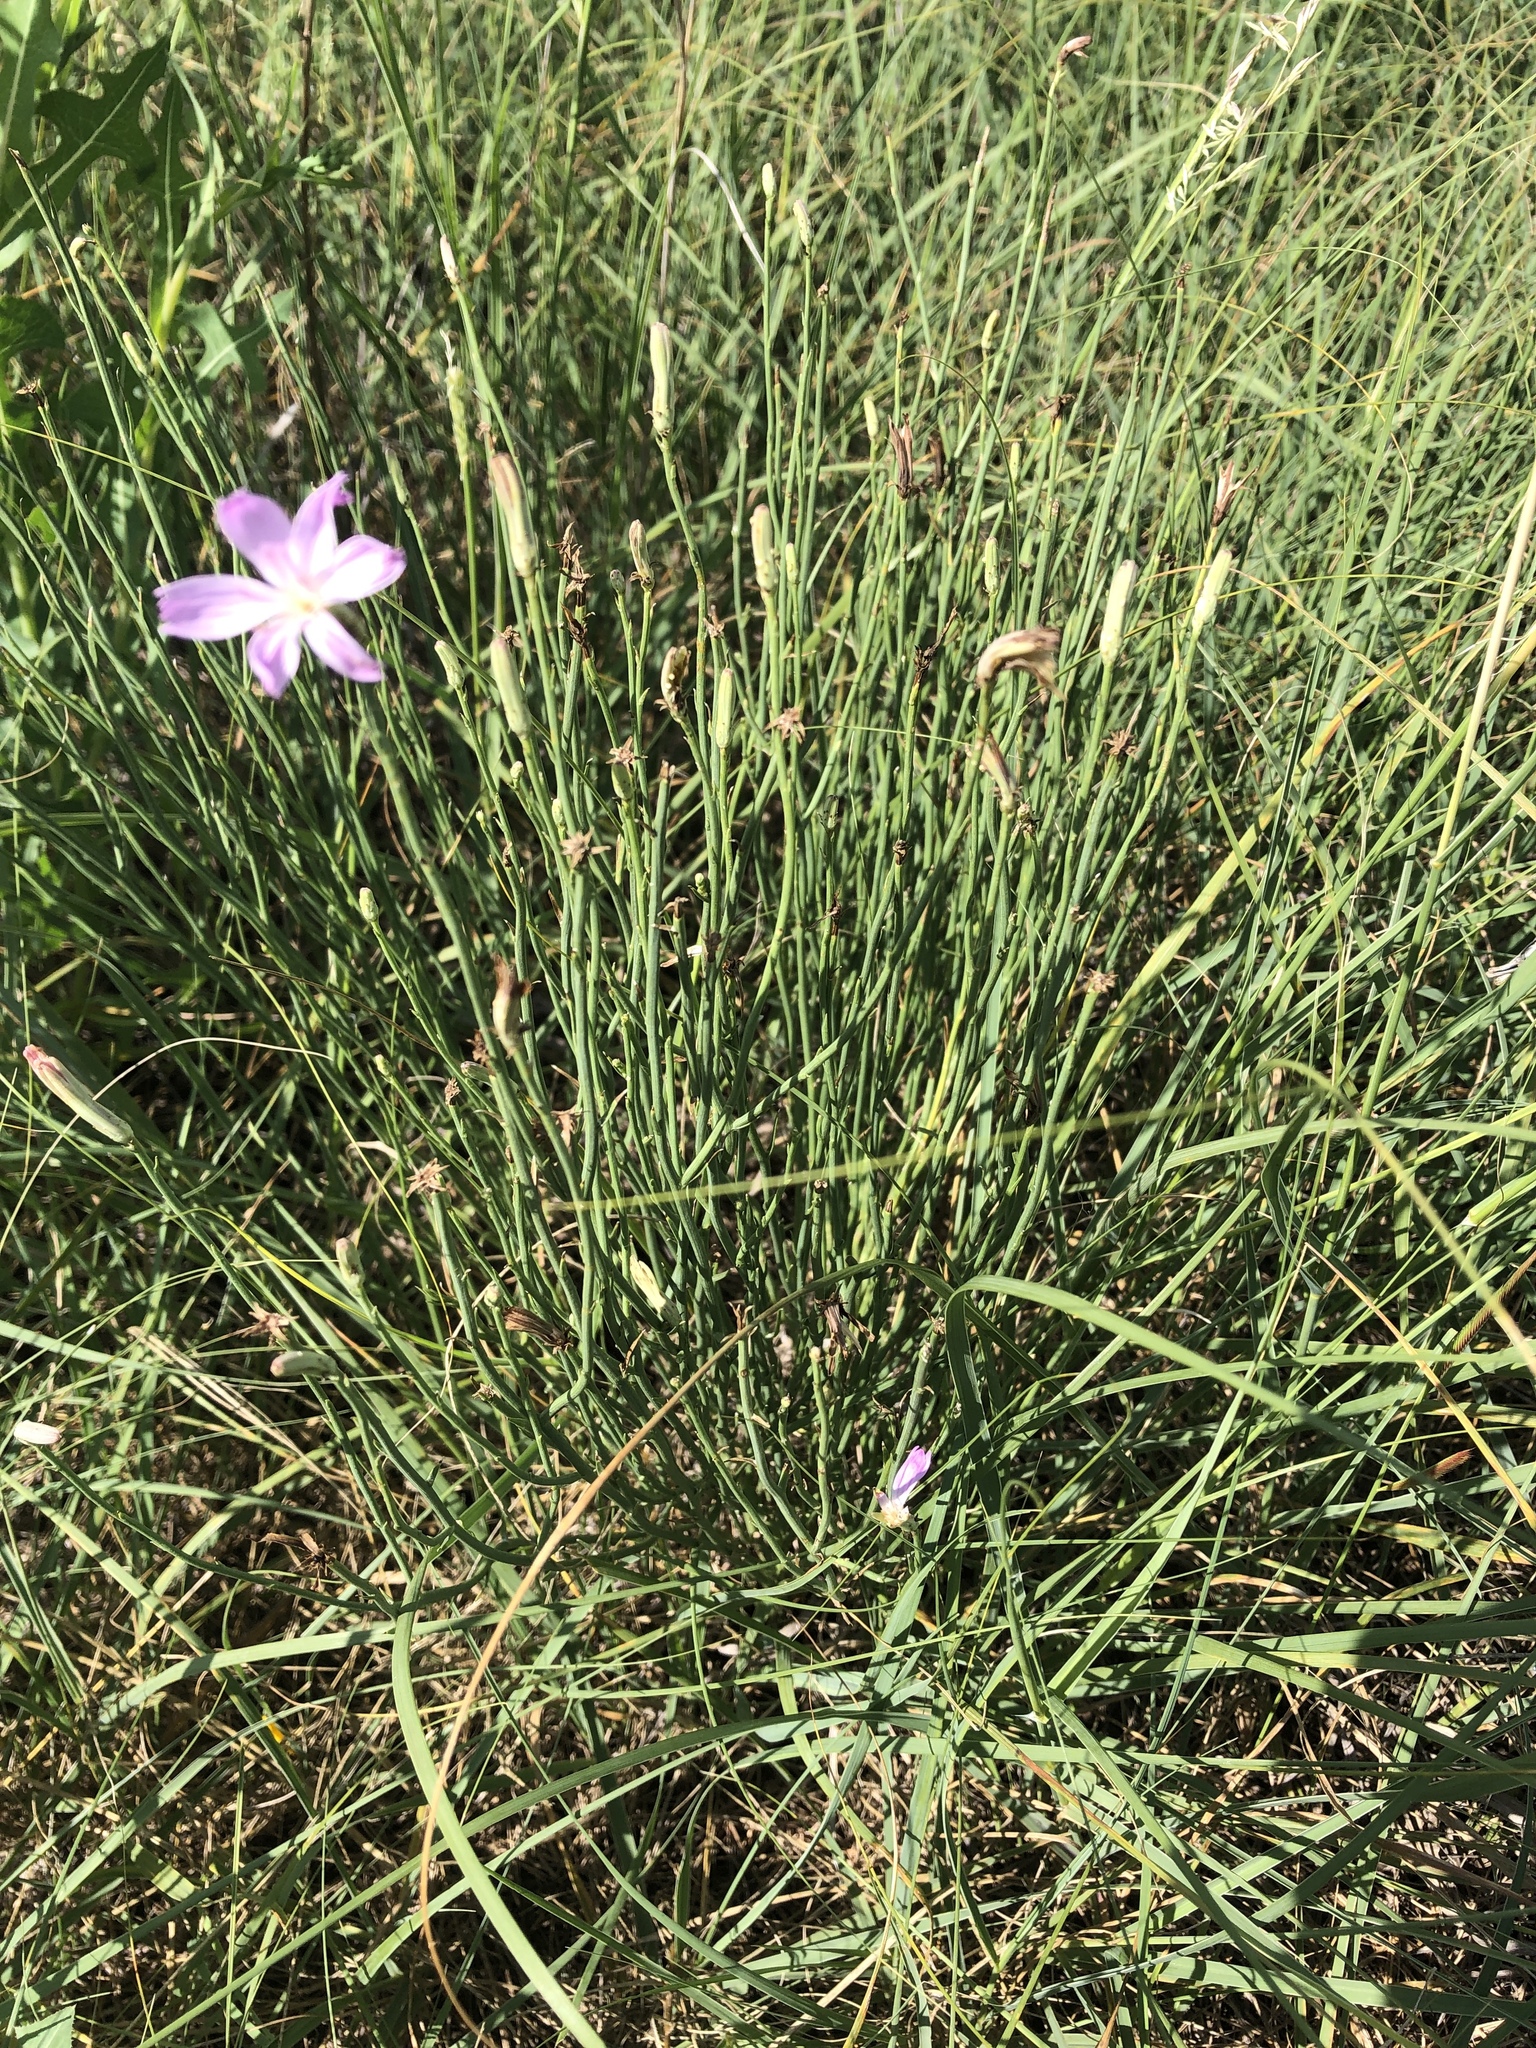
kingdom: Plantae
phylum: Tracheophyta
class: Magnoliopsida
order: Asterales
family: Asteraceae
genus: Lygodesmia
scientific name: Lygodesmia juncea
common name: Common skeletonweed
